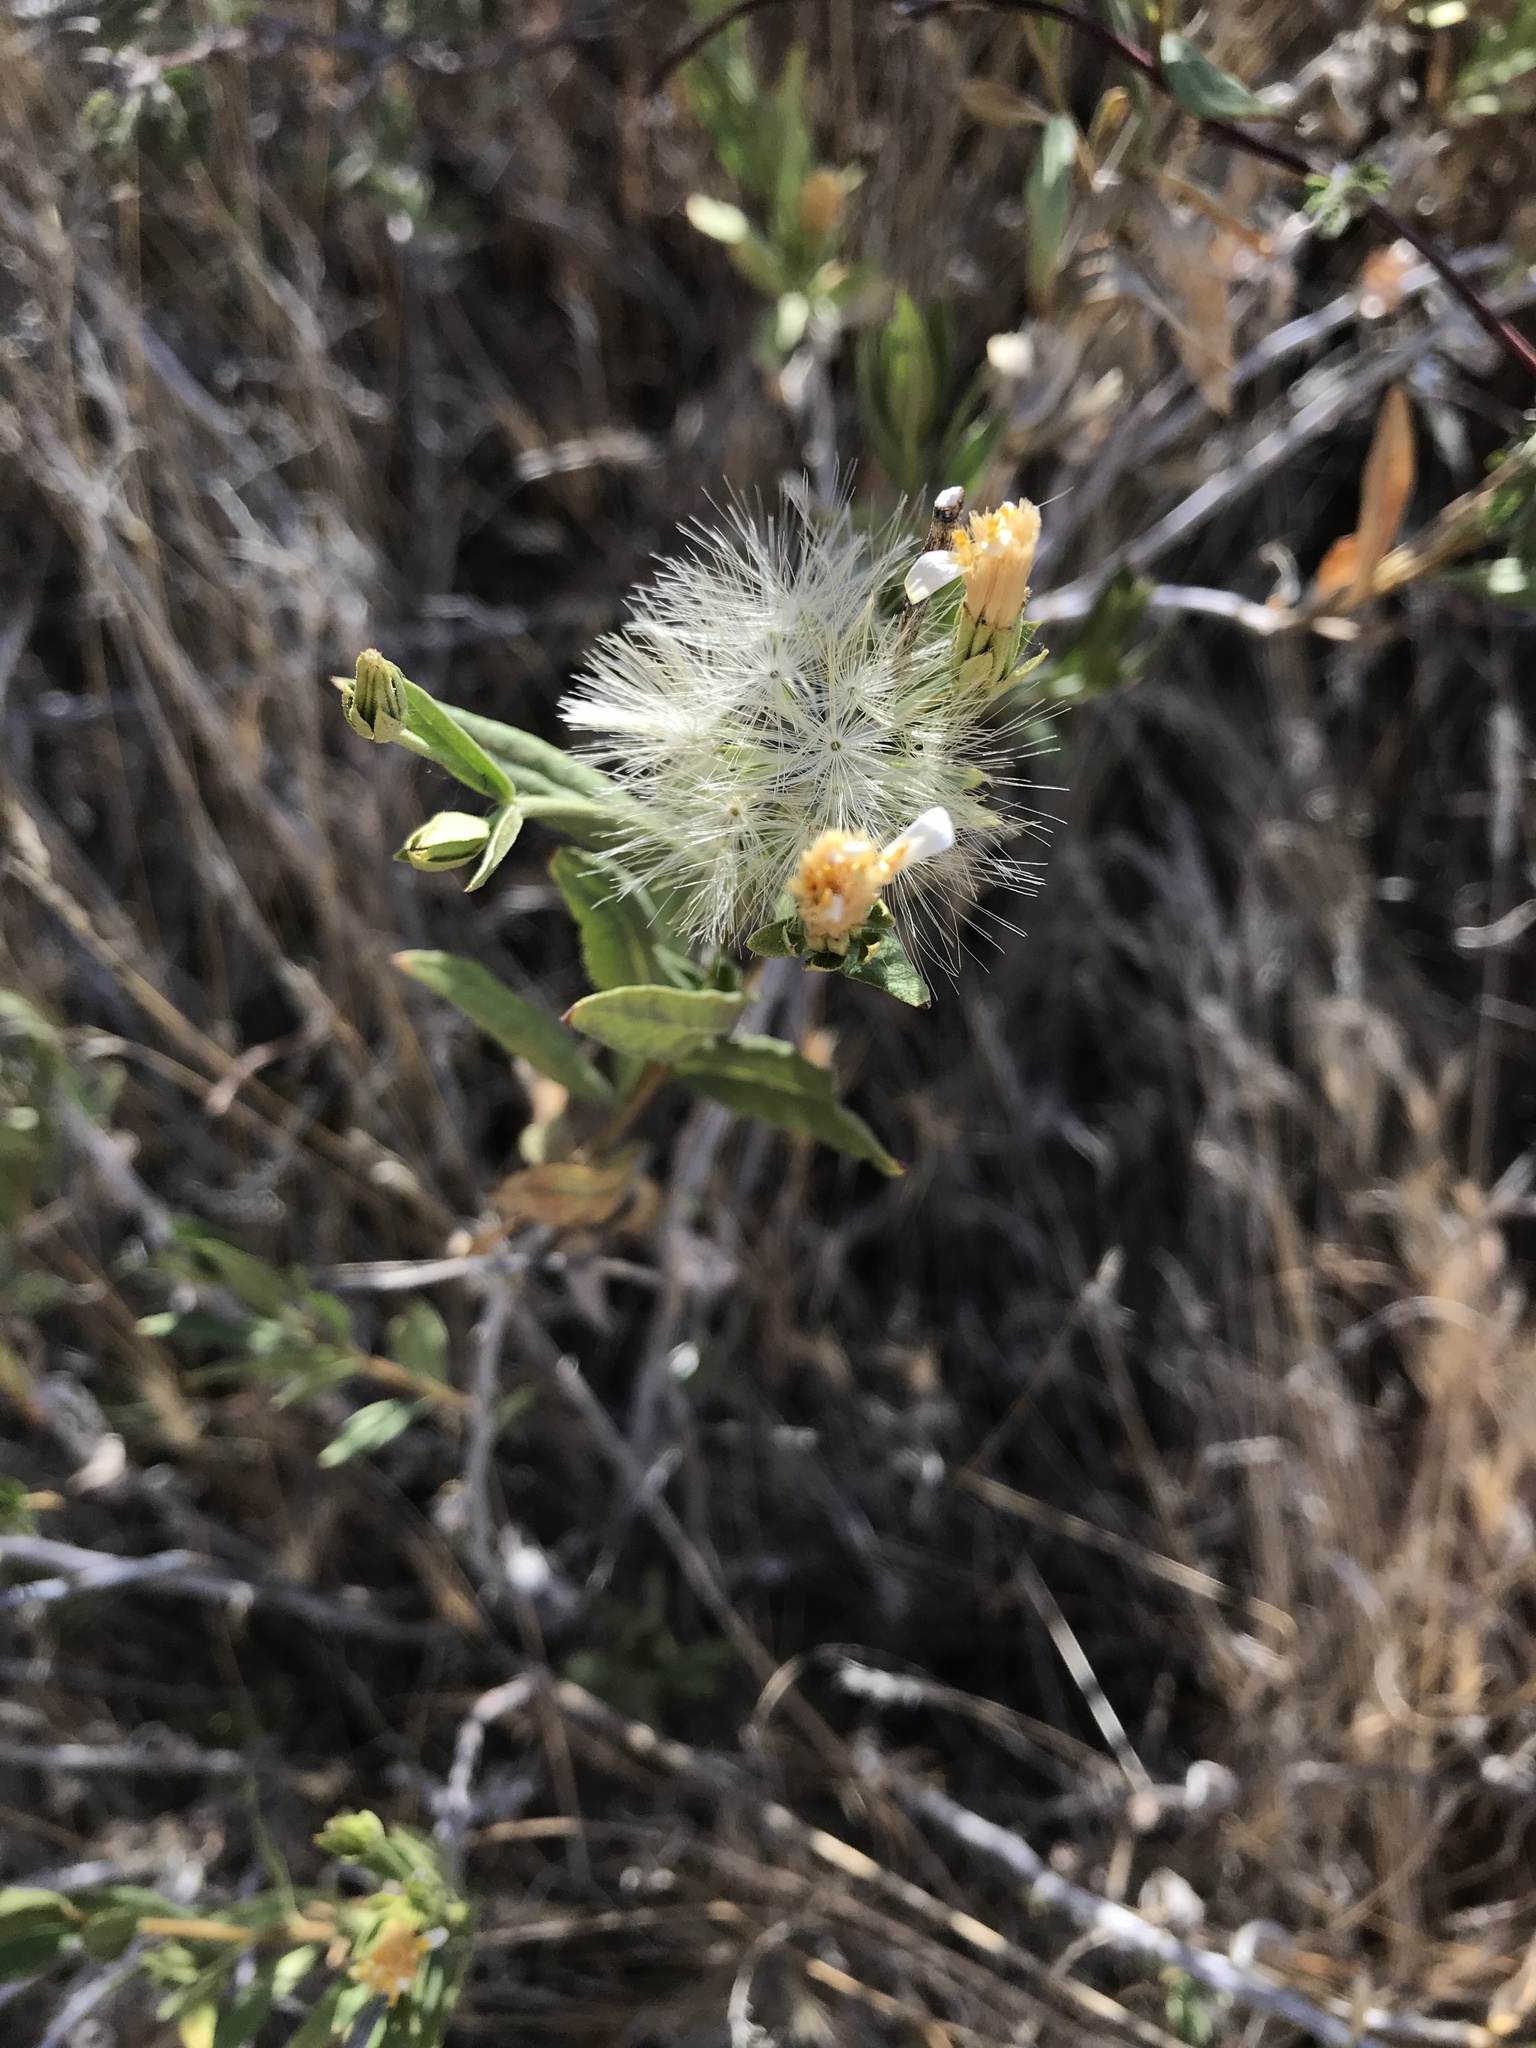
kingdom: Plantae
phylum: Tracheophyta
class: Magnoliopsida
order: Asterales
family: Asteraceae
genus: Trixis
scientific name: Trixis californica
